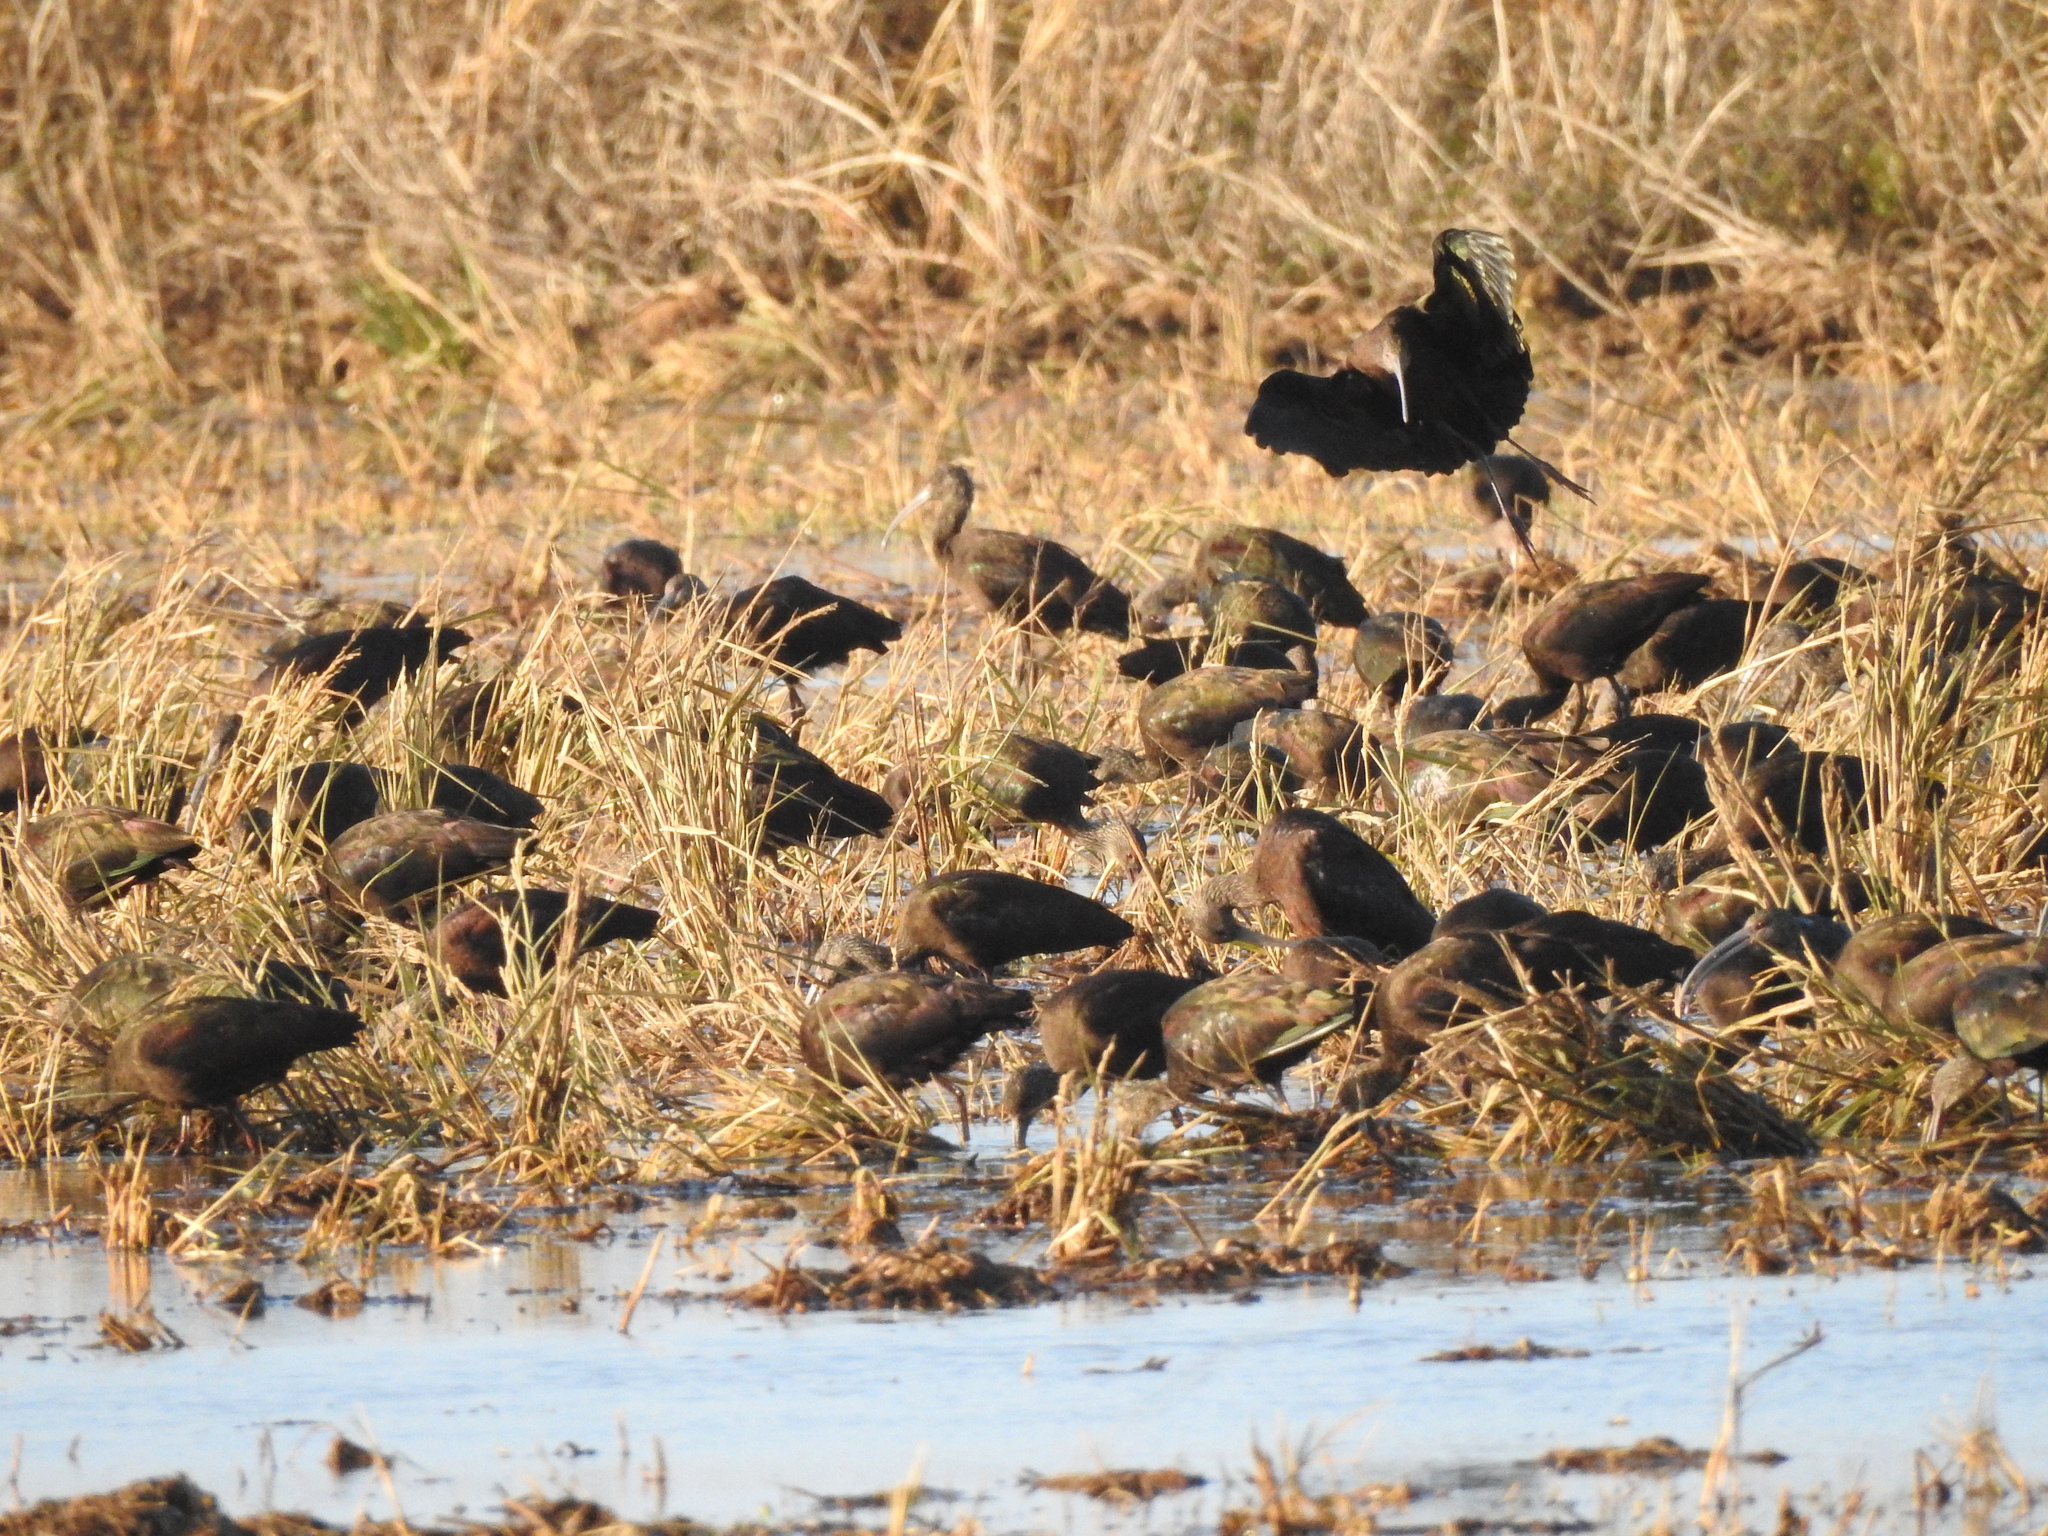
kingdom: Animalia
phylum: Chordata
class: Aves
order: Pelecaniformes
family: Threskiornithidae
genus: Plegadis
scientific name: Plegadis chihi
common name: White-faced ibis
